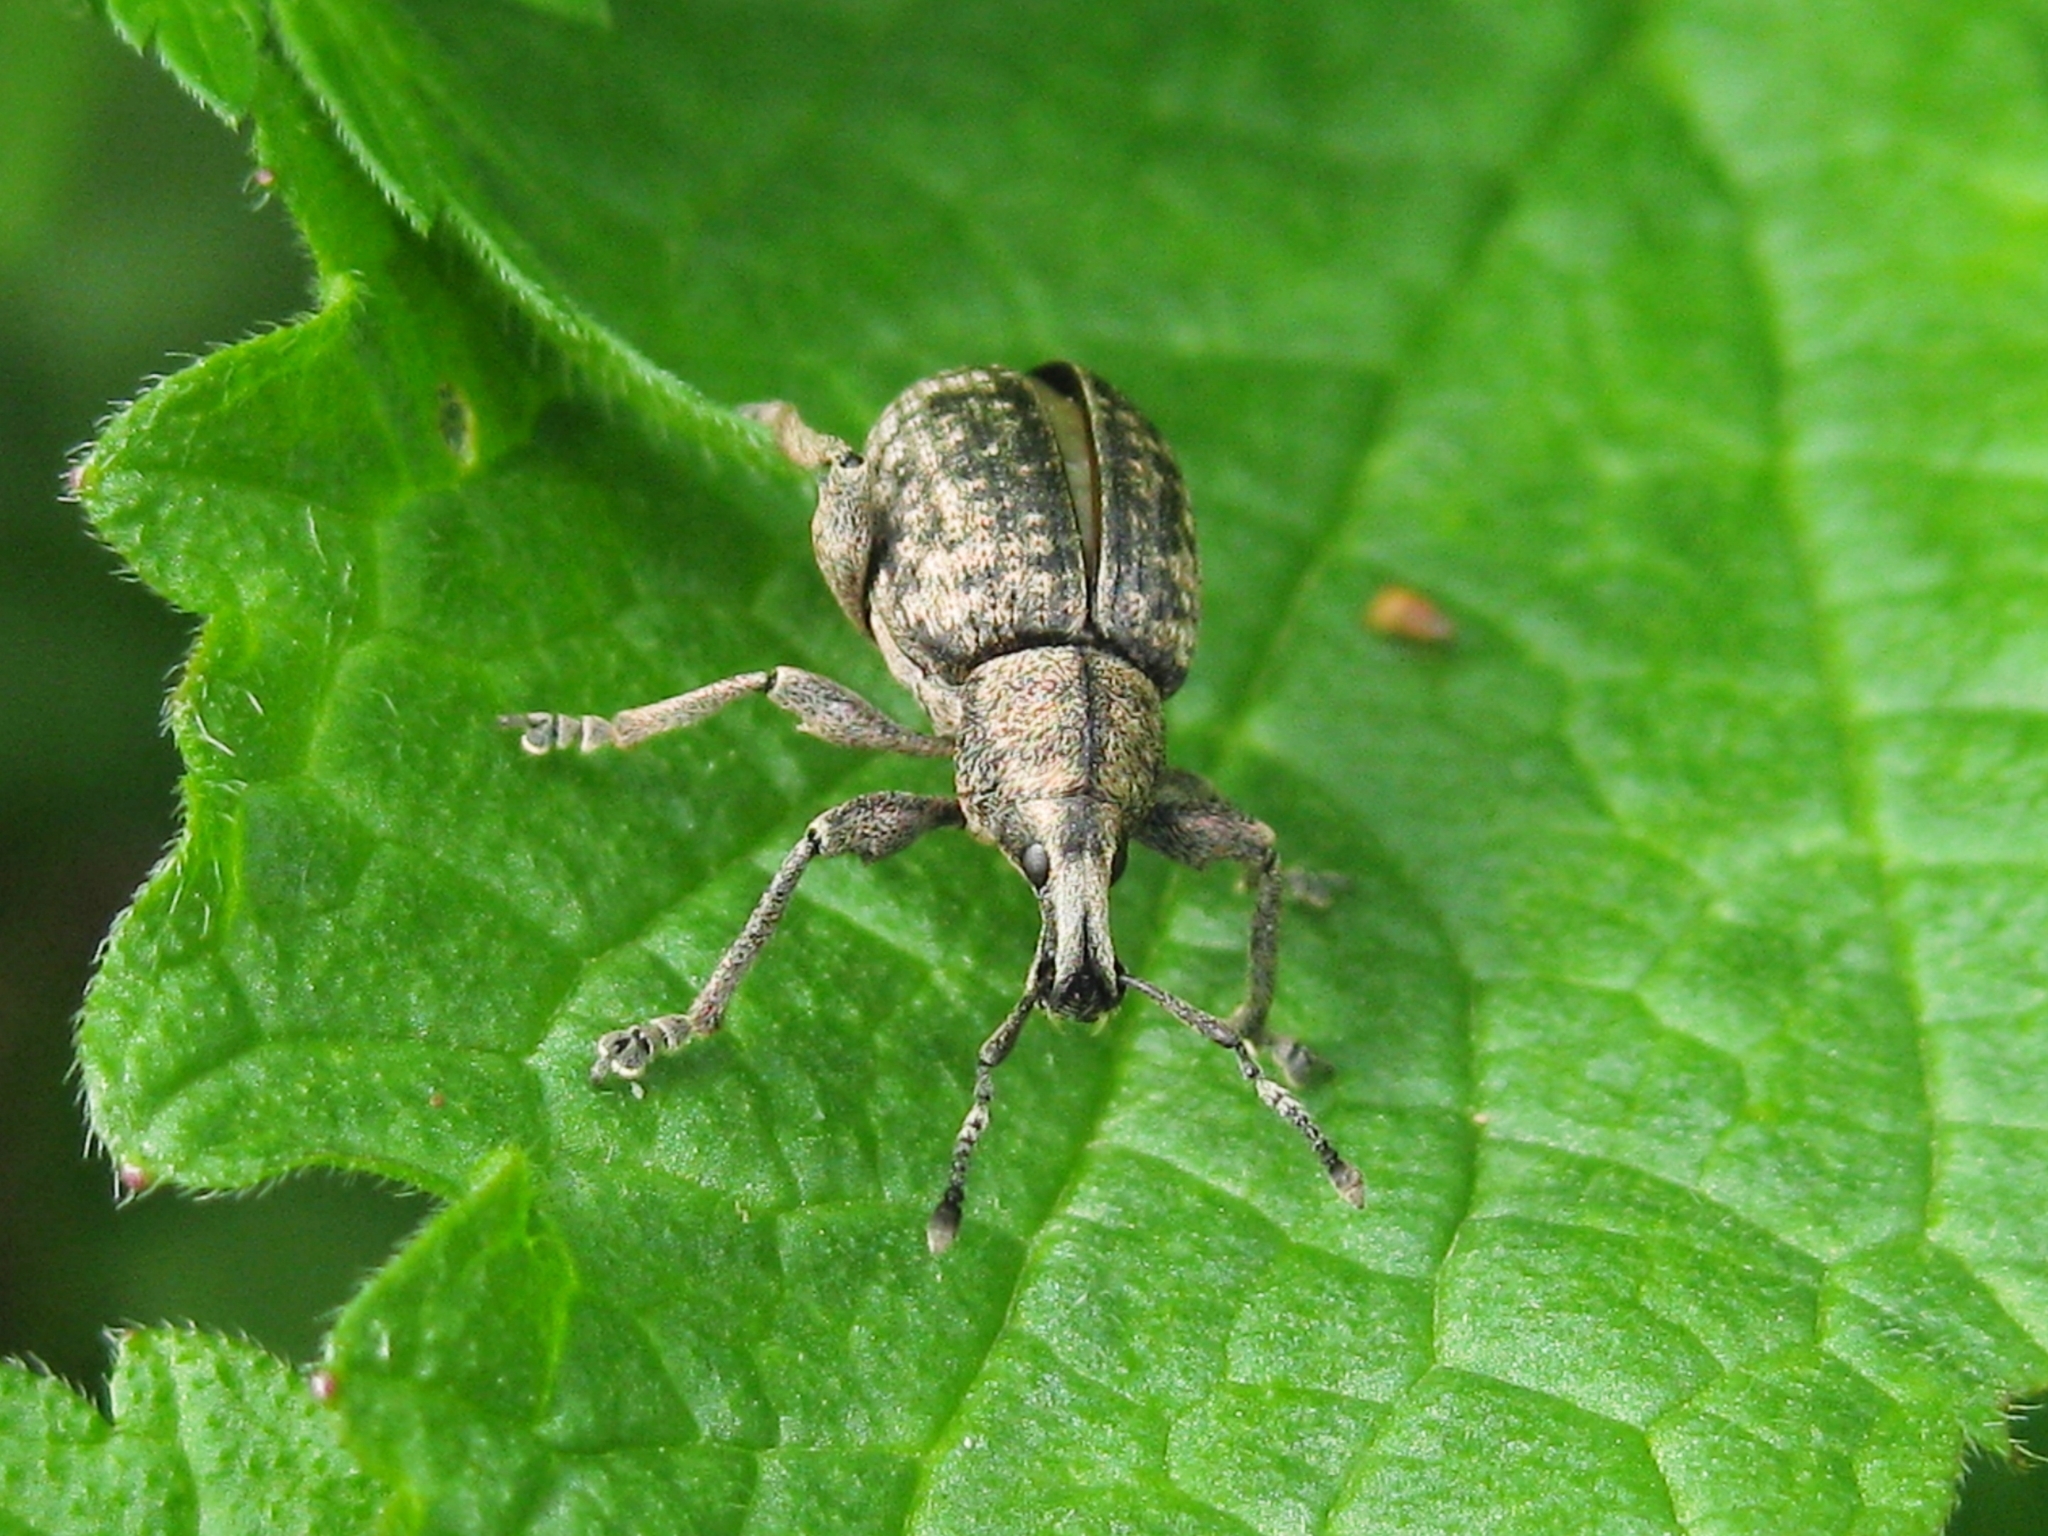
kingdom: Animalia
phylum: Arthropoda
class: Insecta
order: Coleoptera
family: Curculionidae
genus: Nastus
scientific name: Nastus fausti
